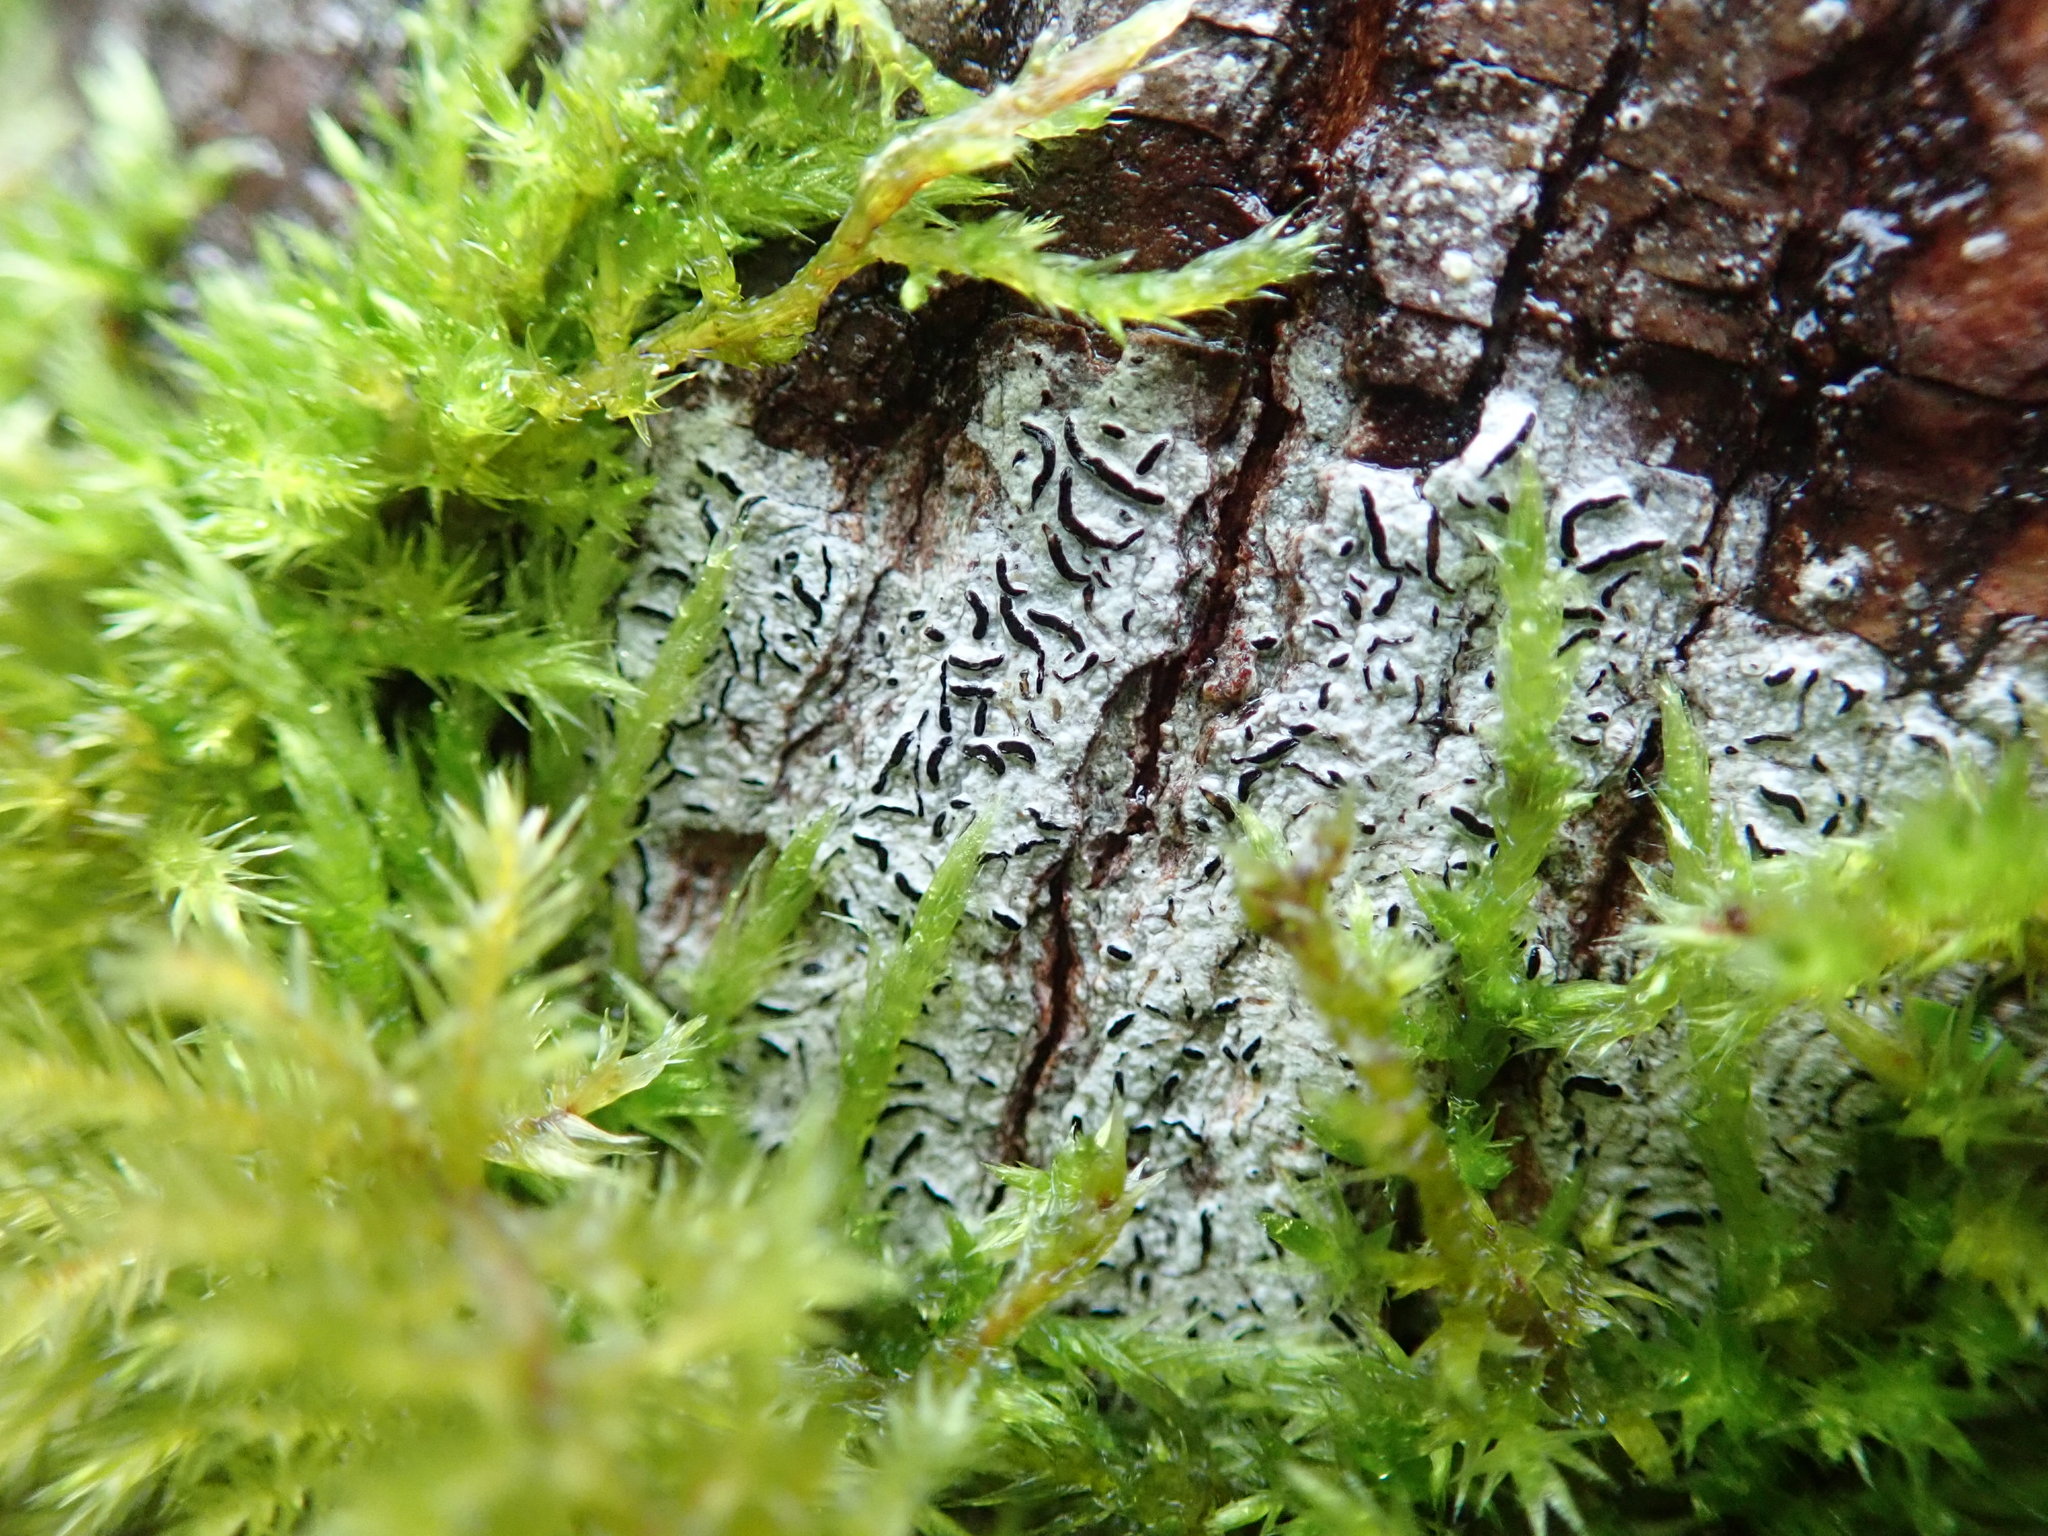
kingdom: Fungi
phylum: Ascomycota
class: Lecanoromycetes
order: Ostropales
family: Graphidaceae
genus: Graphis
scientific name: Graphis scripta
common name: Script lichen
